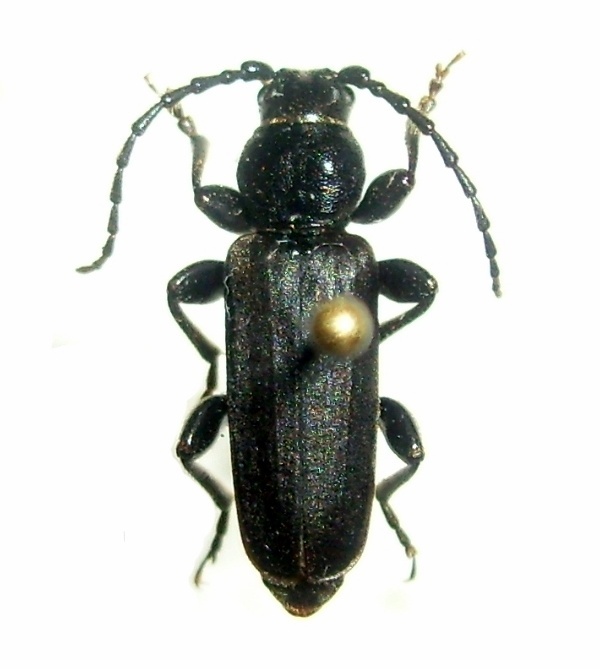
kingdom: Animalia
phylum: Arthropoda
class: Insecta
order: Coleoptera
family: Cerambycidae
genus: Tetropium
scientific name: Tetropium castaneum
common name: Long-horned beetle
